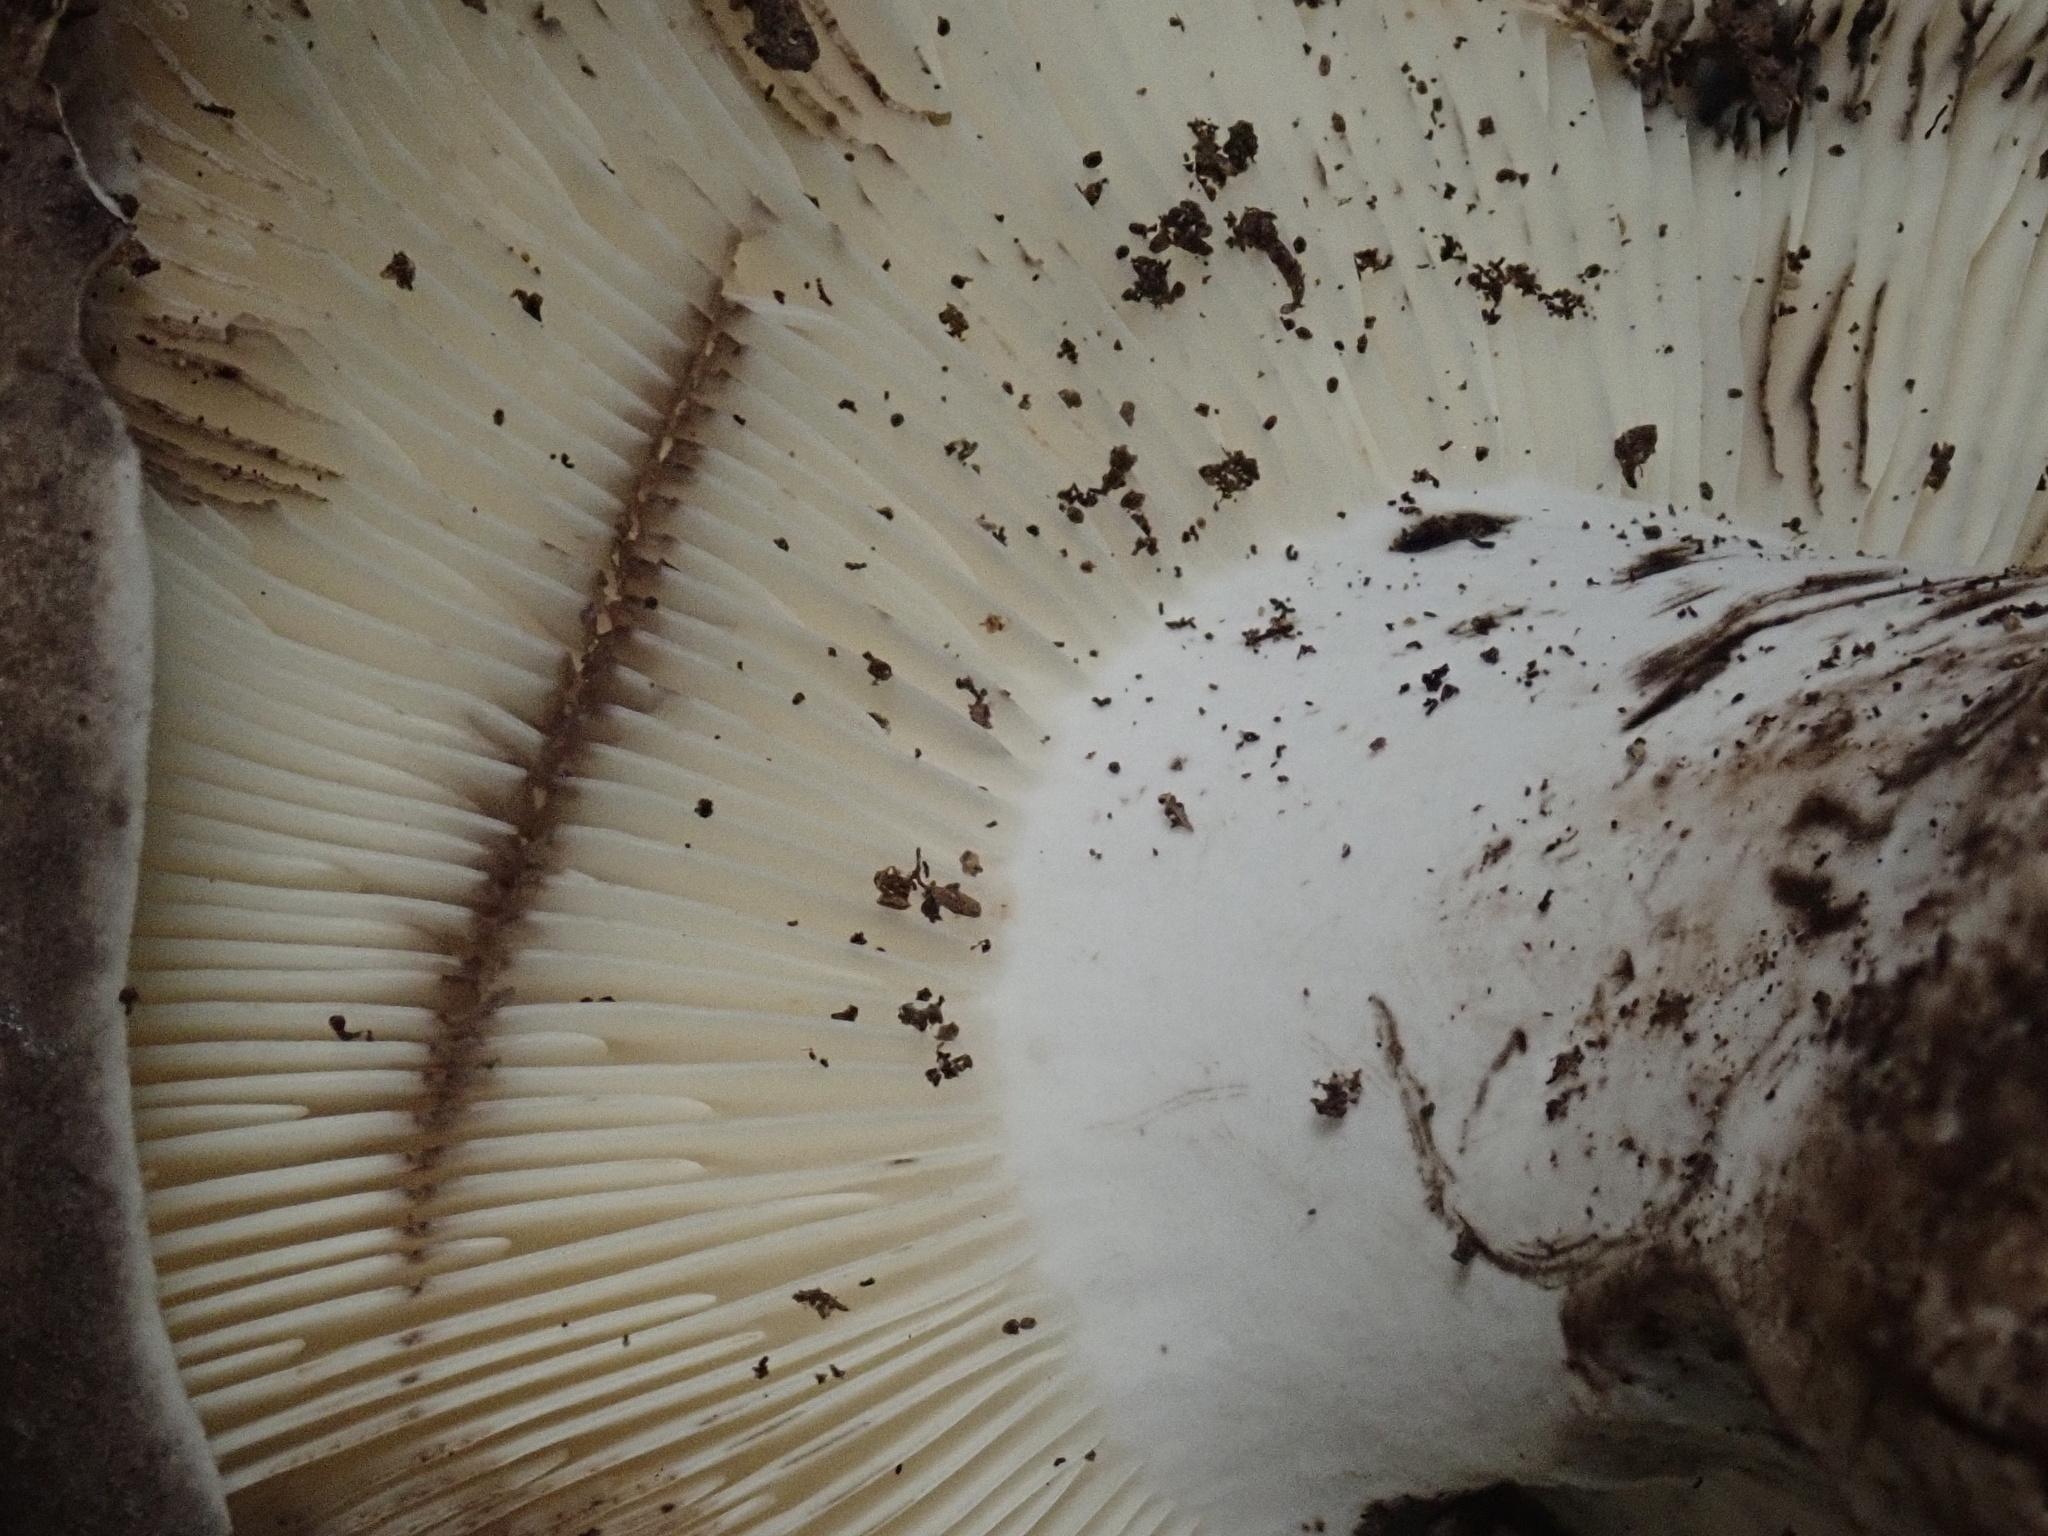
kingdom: Fungi
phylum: Basidiomycota
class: Agaricomycetes
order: Russulales
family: Russulaceae
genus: Russula
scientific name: Russula albonigra
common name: Menthol brittlegill
